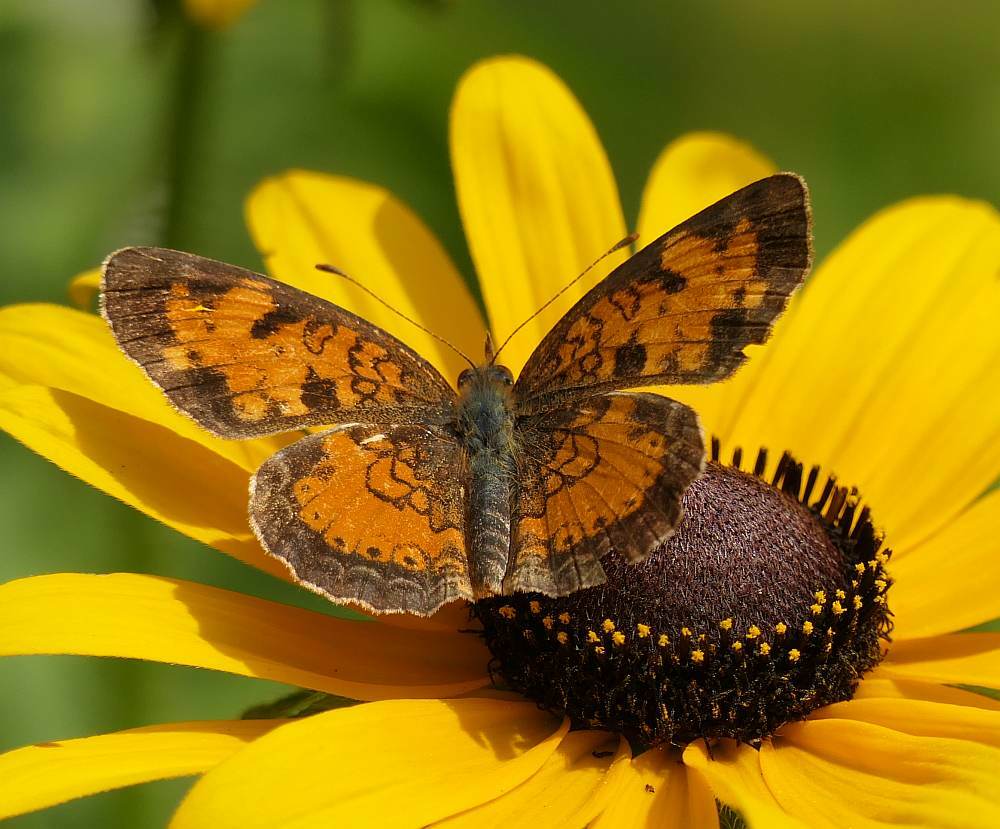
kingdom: Animalia
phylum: Arthropoda
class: Insecta
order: Lepidoptera
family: Nymphalidae
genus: Phyciodes
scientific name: Phyciodes tharos
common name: Pearl crescent
